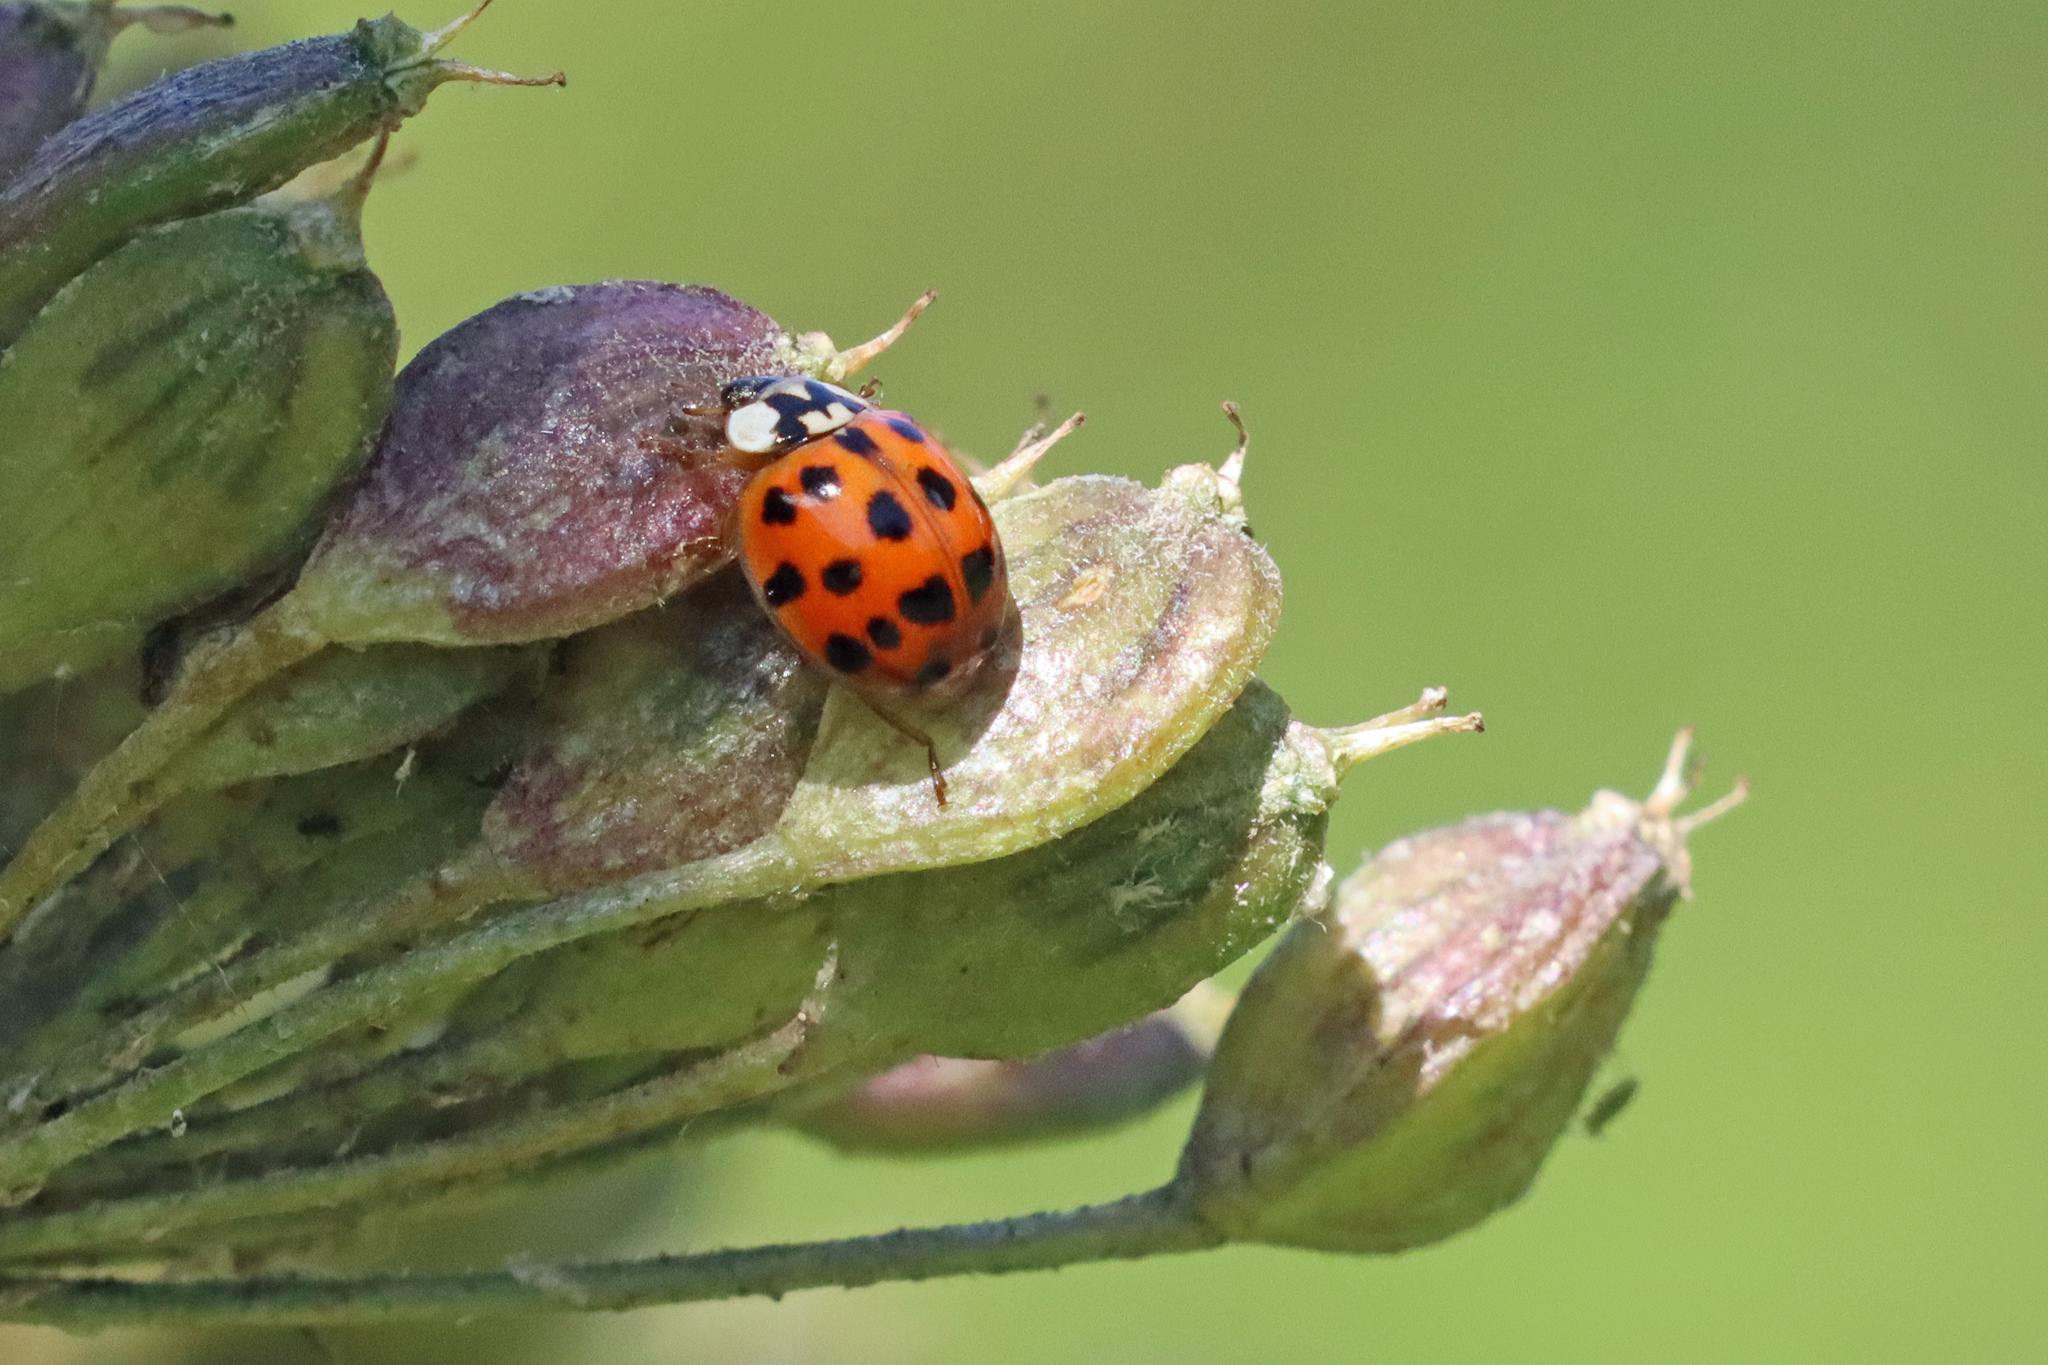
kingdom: Animalia
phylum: Arthropoda
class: Insecta
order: Coleoptera
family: Coccinellidae
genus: Harmonia
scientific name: Harmonia axyridis
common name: Harlequin ladybird
